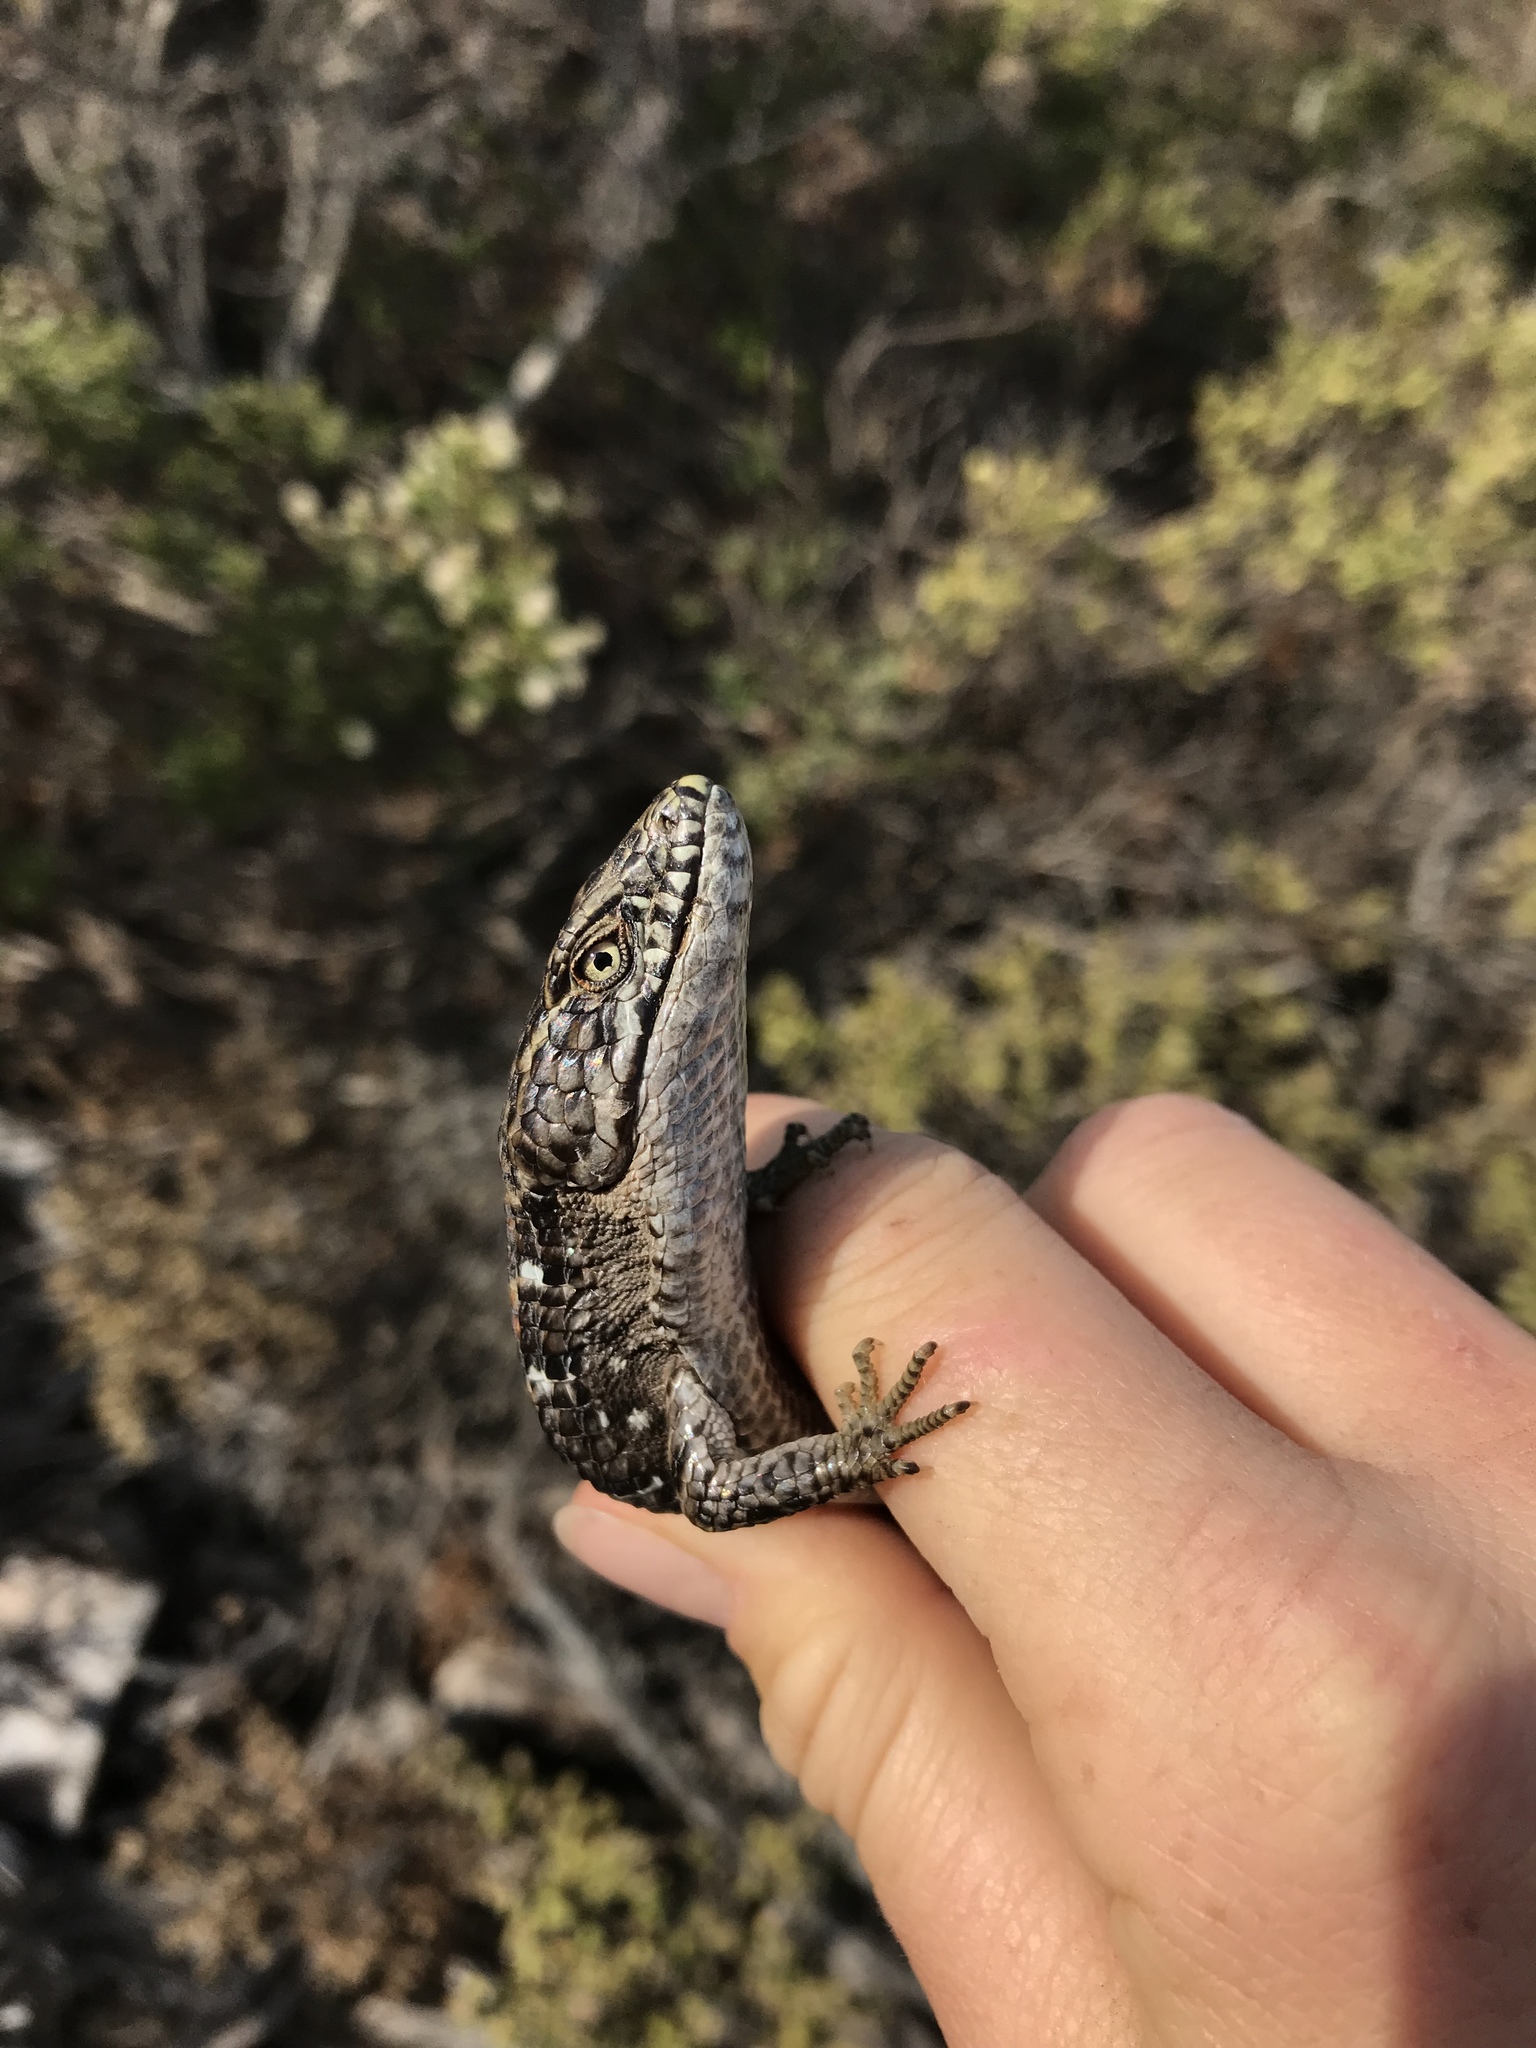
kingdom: Animalia
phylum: Chordata
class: Squamata
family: Anguidae
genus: Elgaria
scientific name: Elgaria multicarinata
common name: Southern alligator lizard
